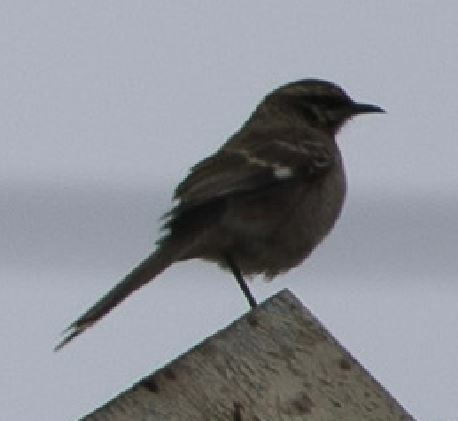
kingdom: Animalia
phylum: Chordata
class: Aves
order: Passeriformes
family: Mimidae
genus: Mimus
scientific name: Mimus longicaudatus
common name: Long-tailed mockingbird
